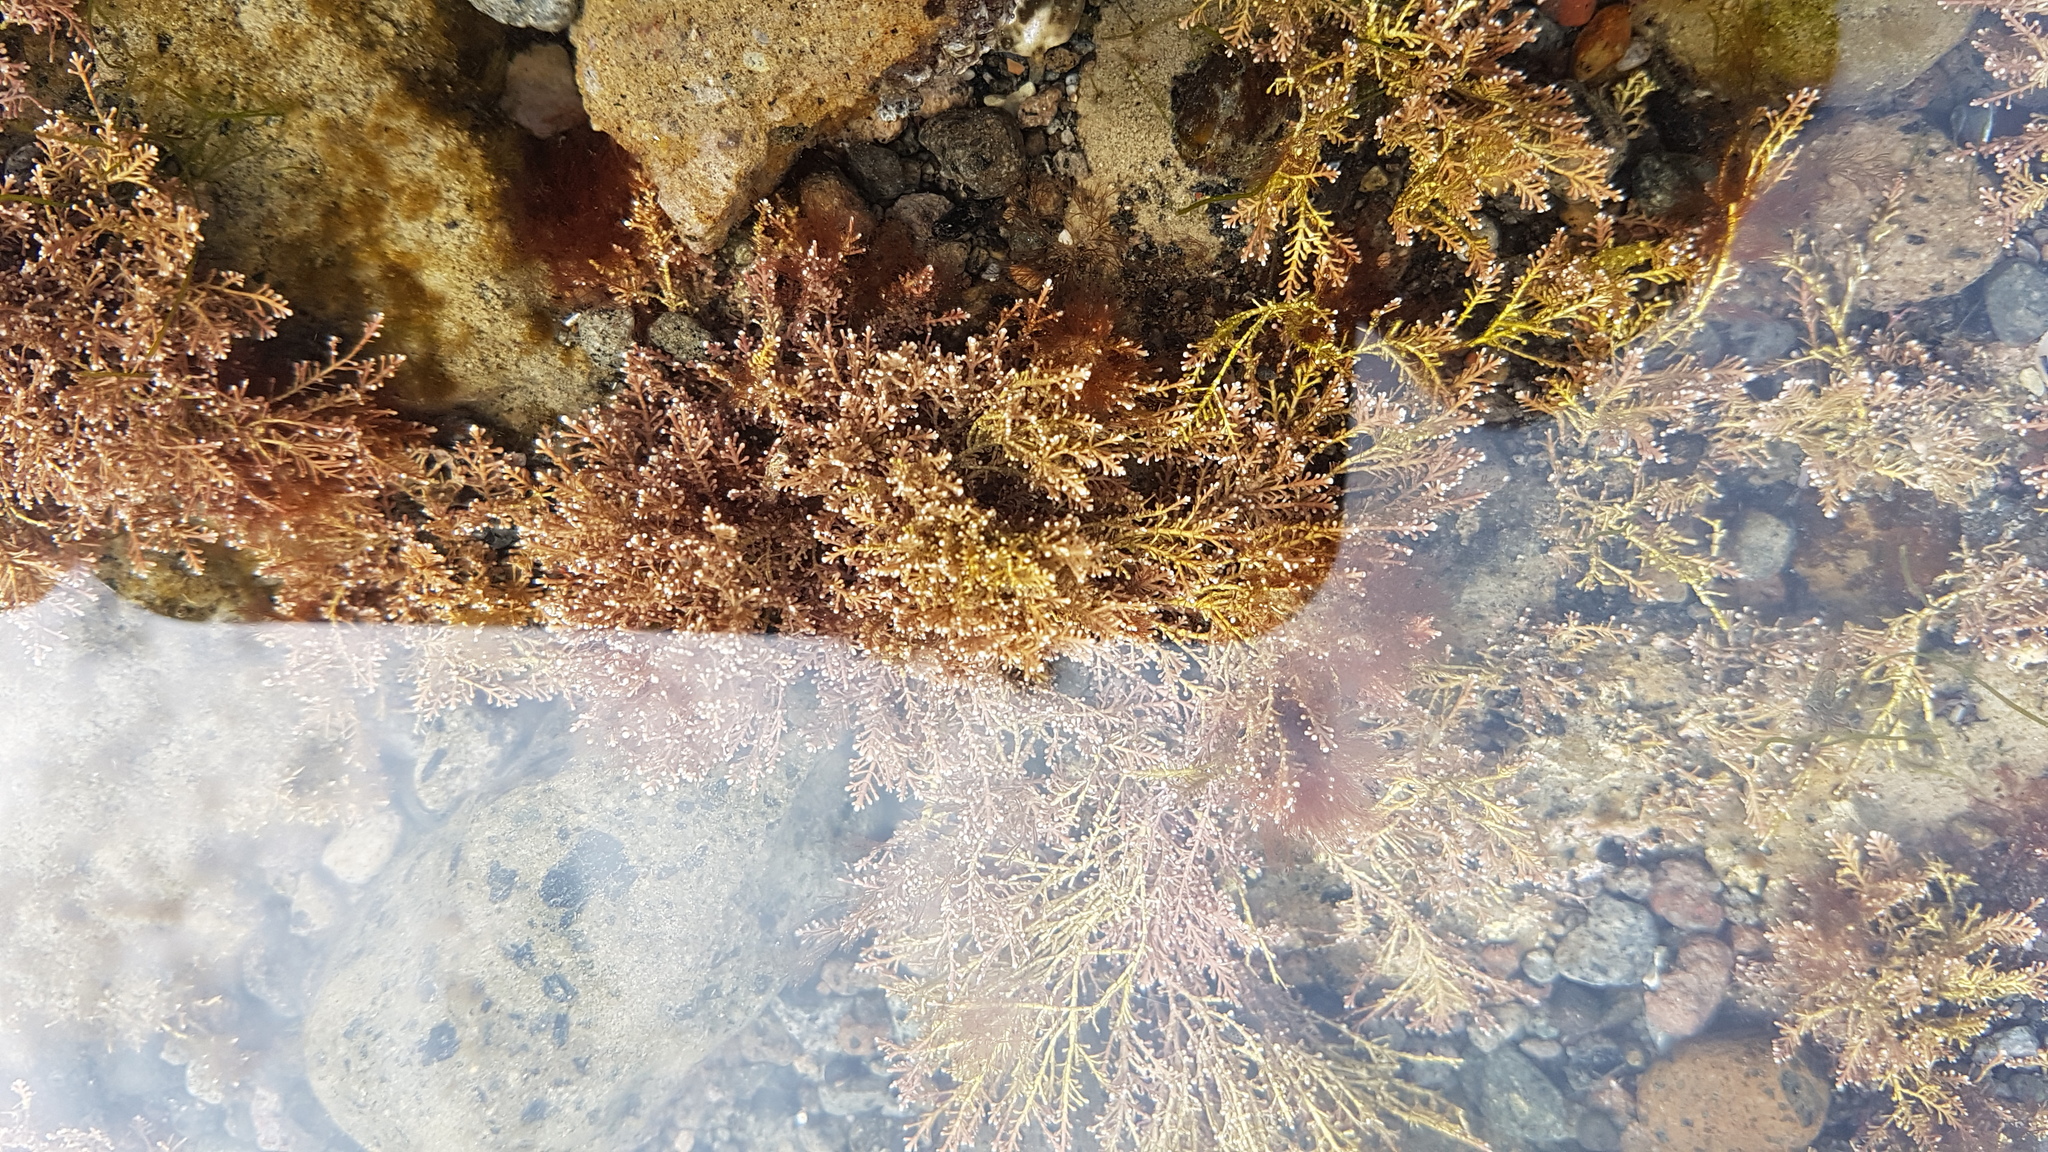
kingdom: Plantae
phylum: Rhodophyta
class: Florideophyceae
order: Corallinales
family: Corallinaceae
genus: Corallina
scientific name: Corallina officinalis
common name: Coral weed
